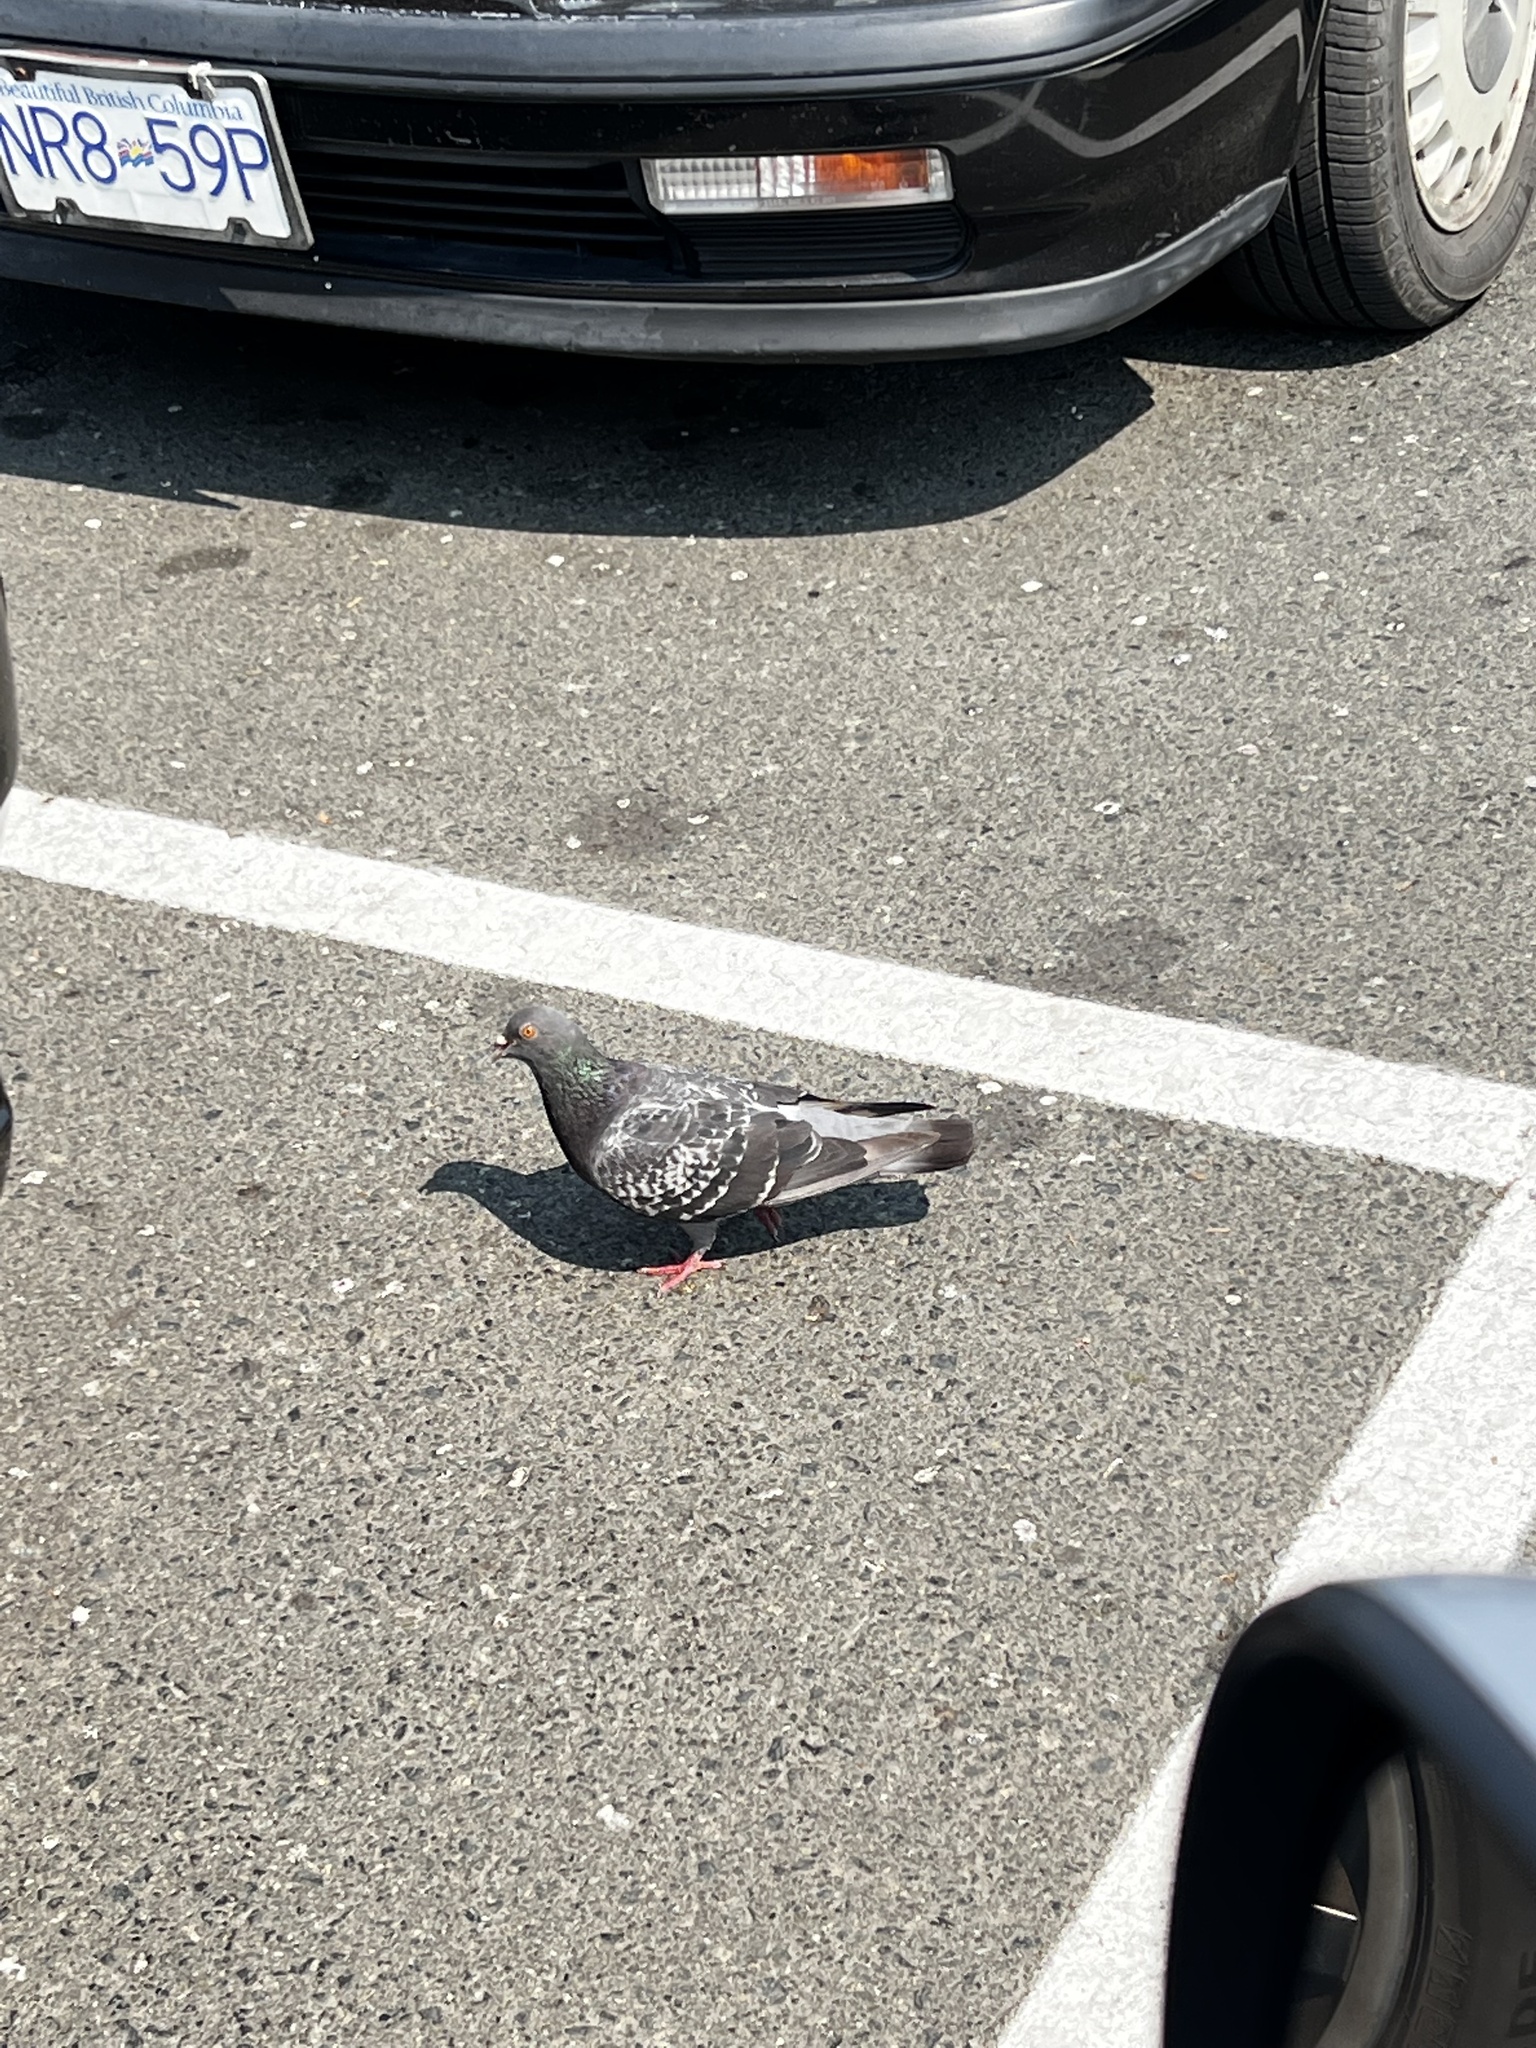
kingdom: Animalia
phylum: Chordata
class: Aves
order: Columbiformes
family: Columbidae
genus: Columba
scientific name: Columba livia
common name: Rock pigeon
